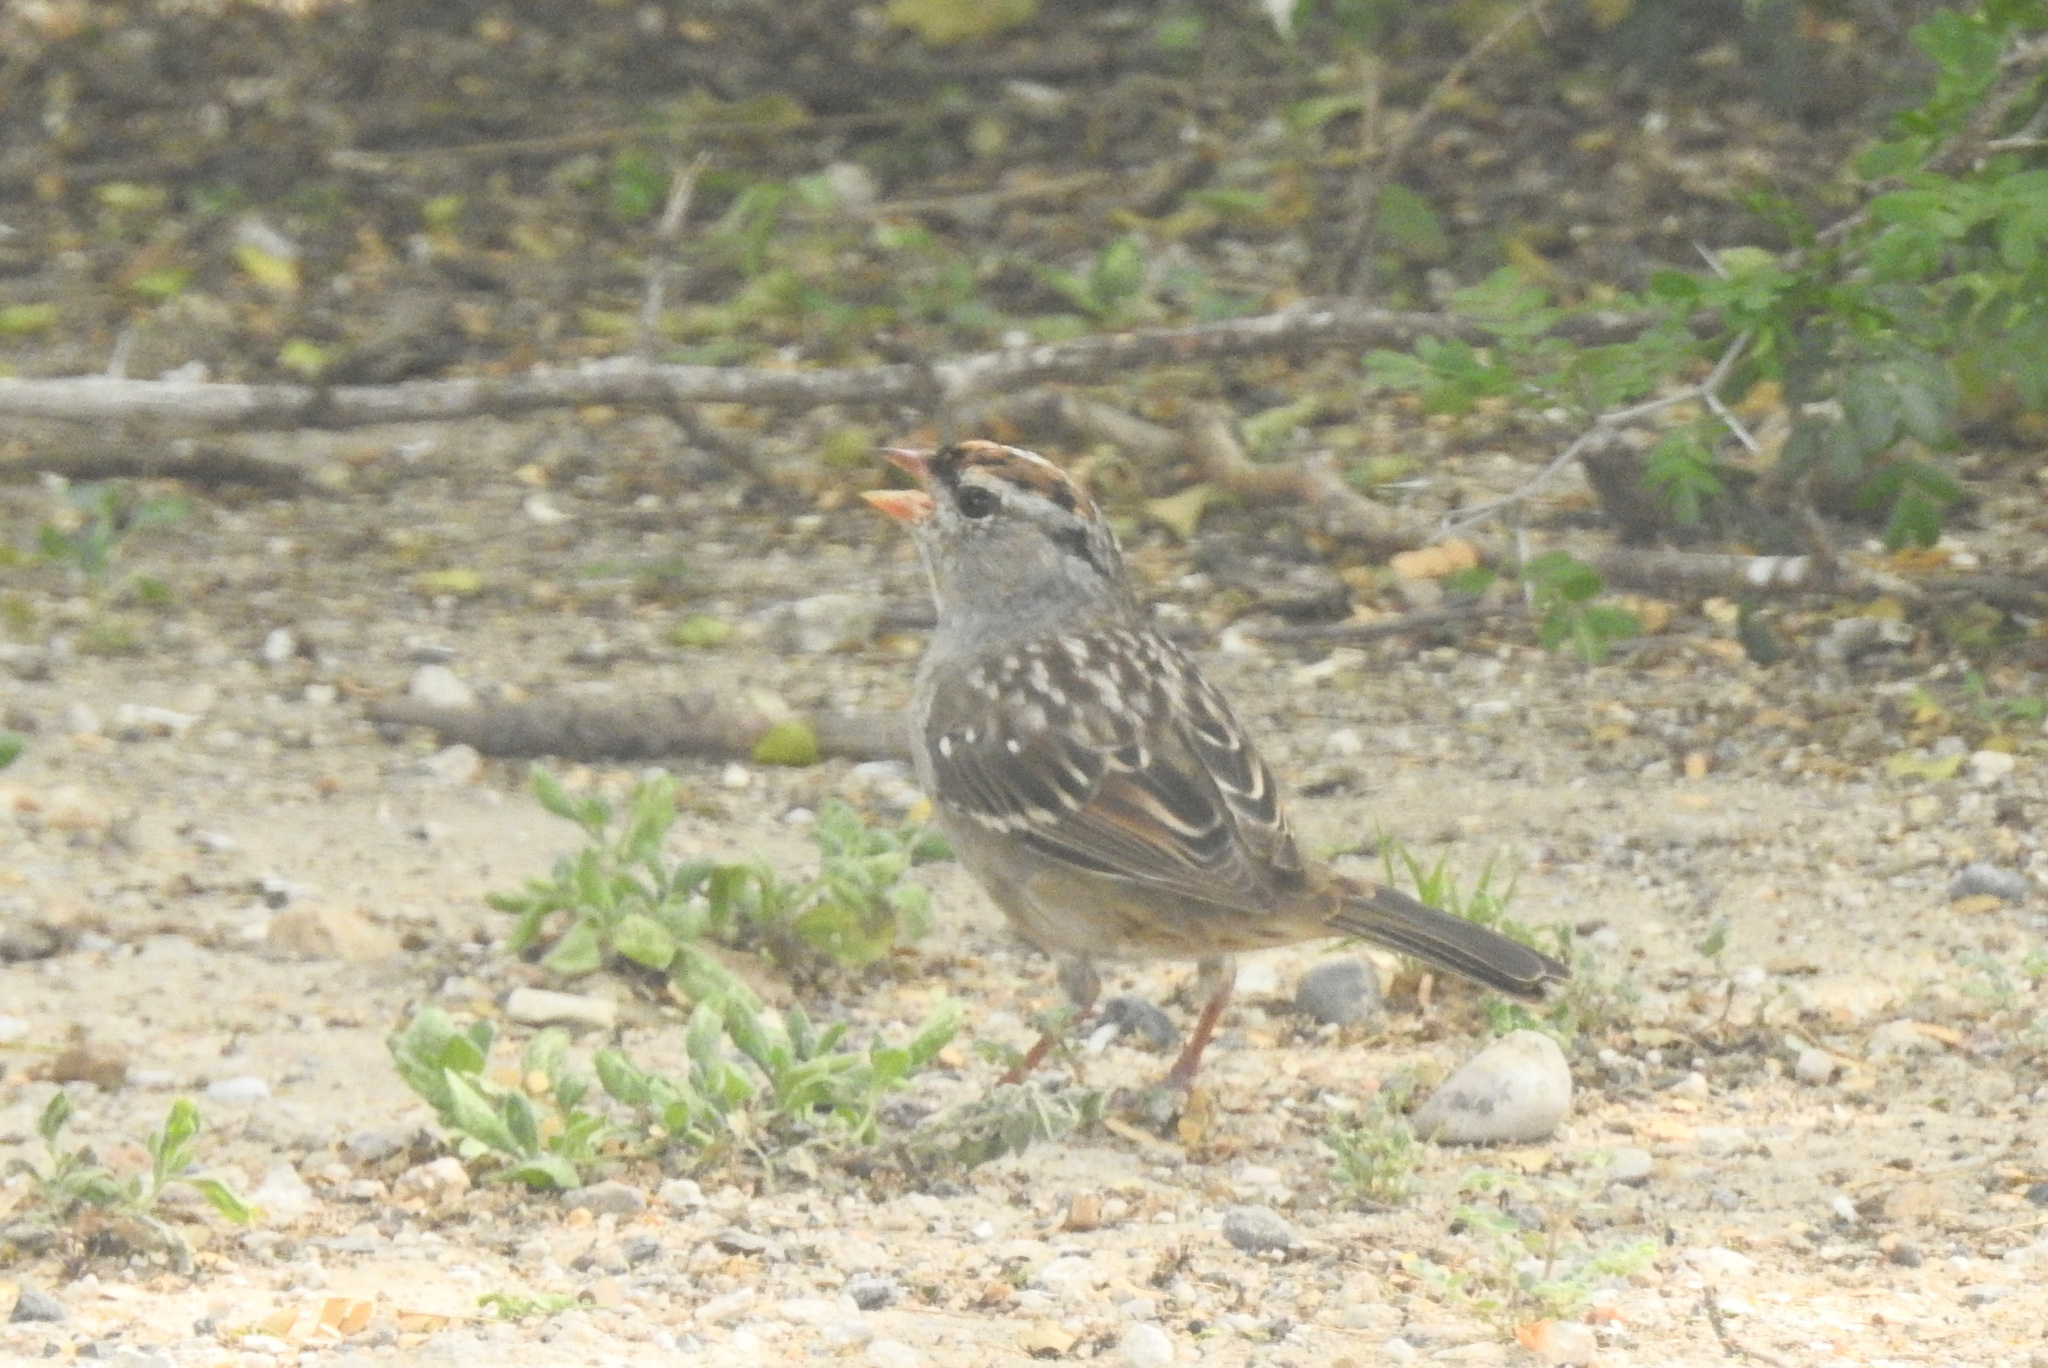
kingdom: Animalia
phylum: Chordata
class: Aves
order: Passeriformes
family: Passerellidae
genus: Zonotrichia
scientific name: Zonotrichia leucophrys
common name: White-crowned sparrow
